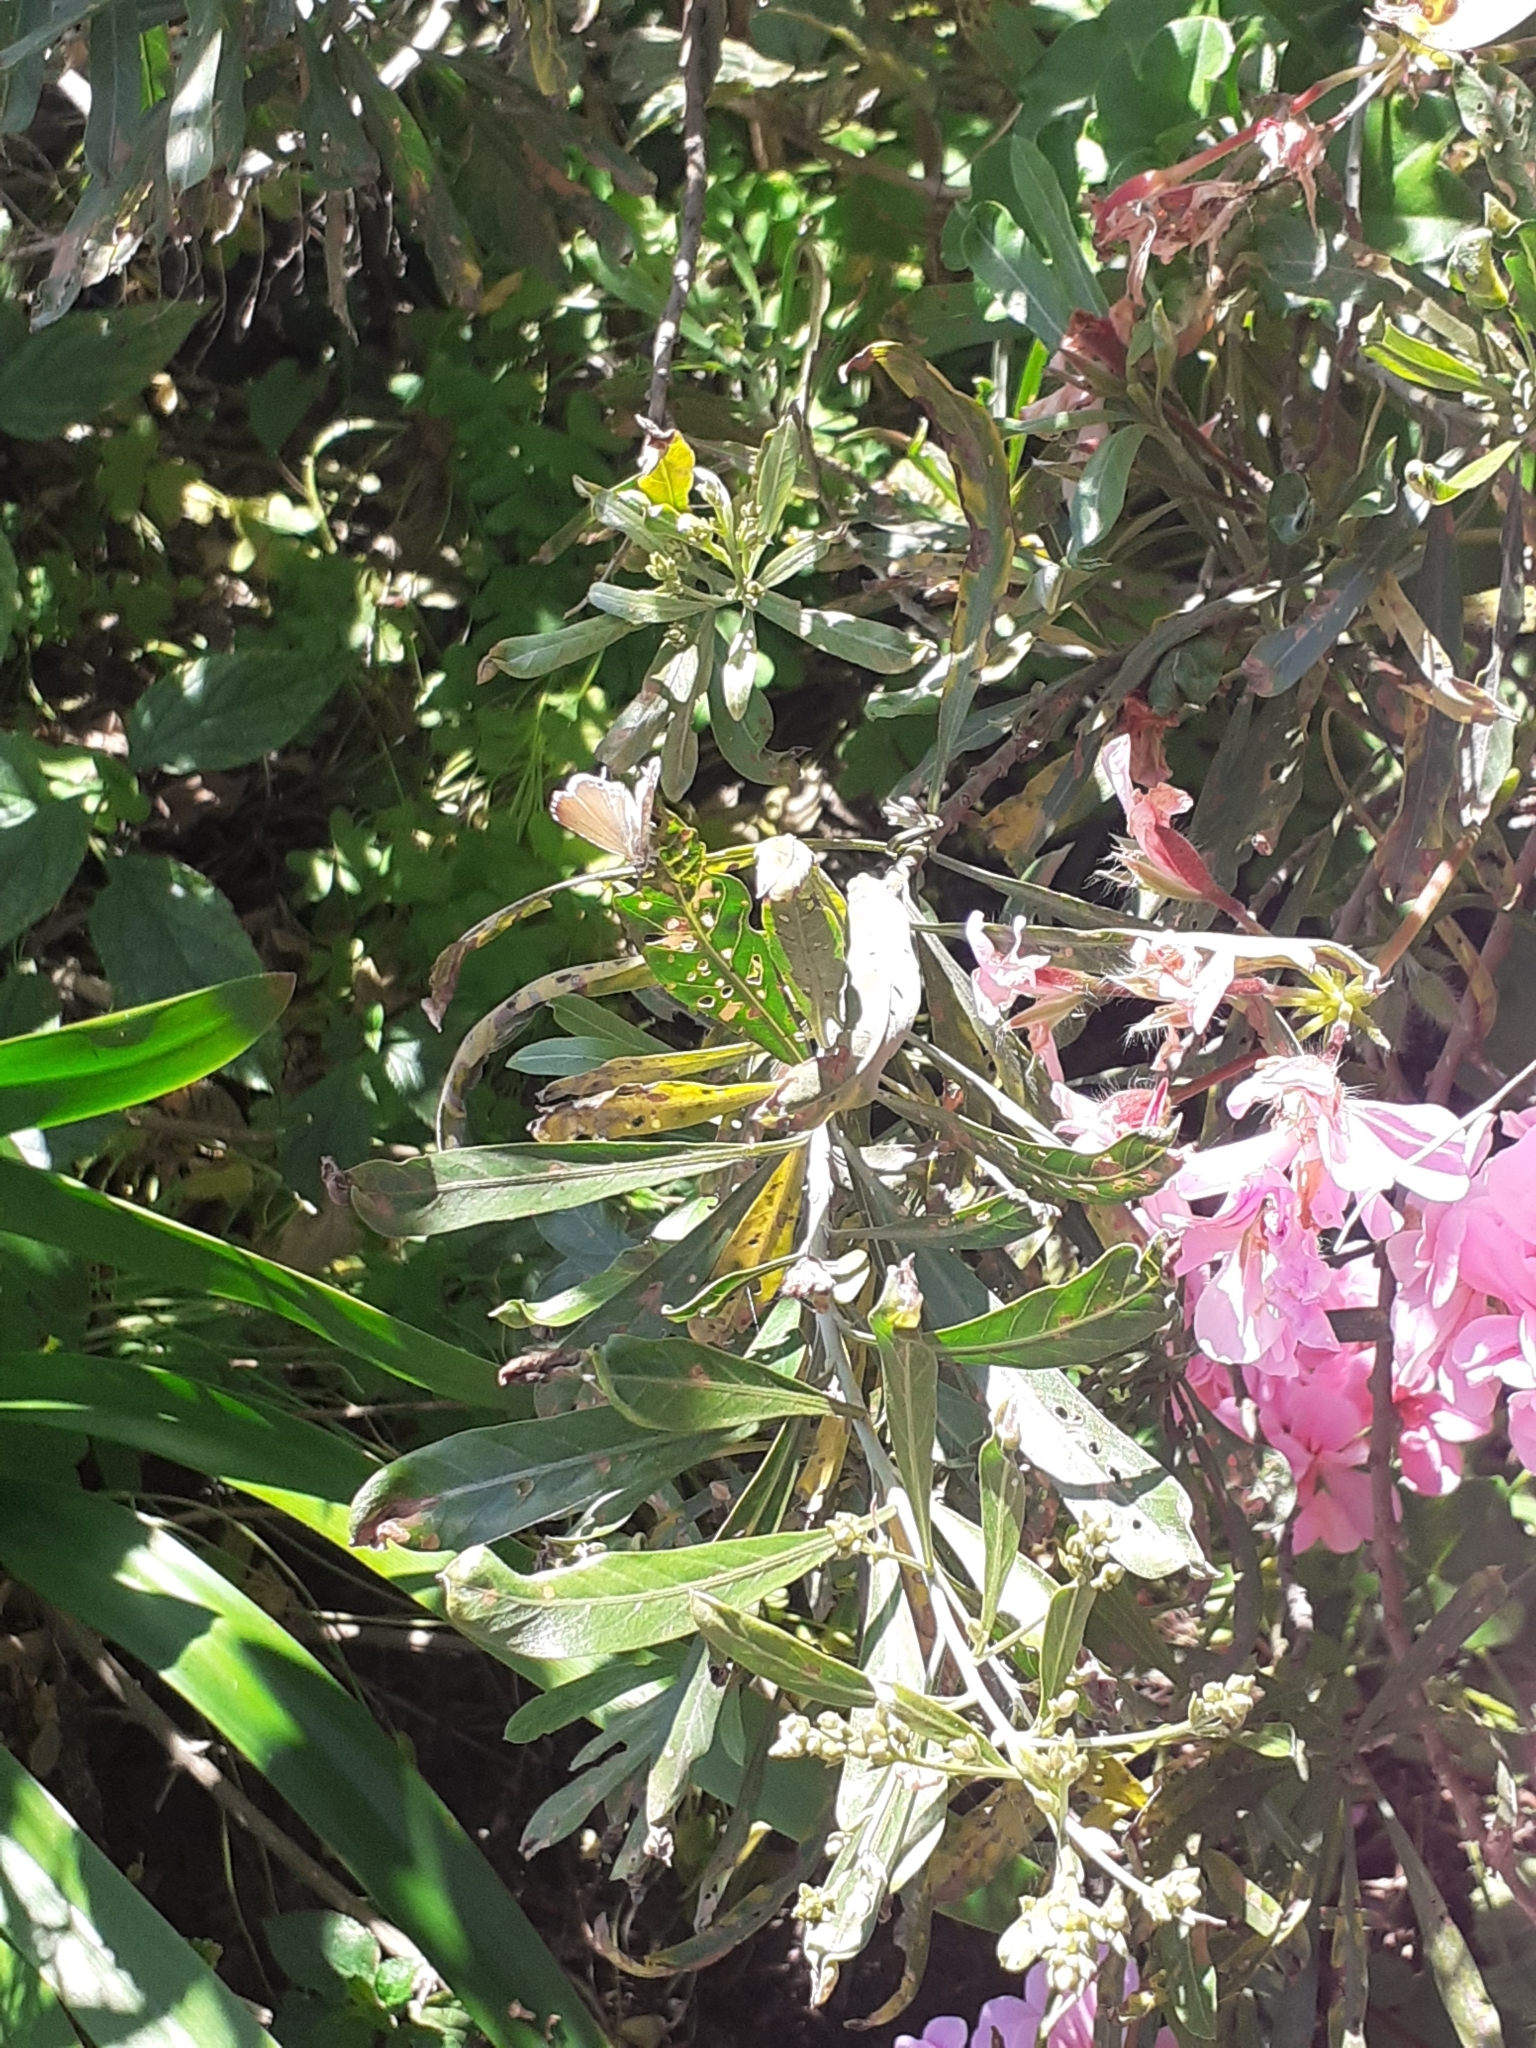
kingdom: Animalia
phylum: Arthropoda
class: Insecta
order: Lepidoptera
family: Lycaenidae
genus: Cacyreus
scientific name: Cacyreus marshalli
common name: Geranium bronze
